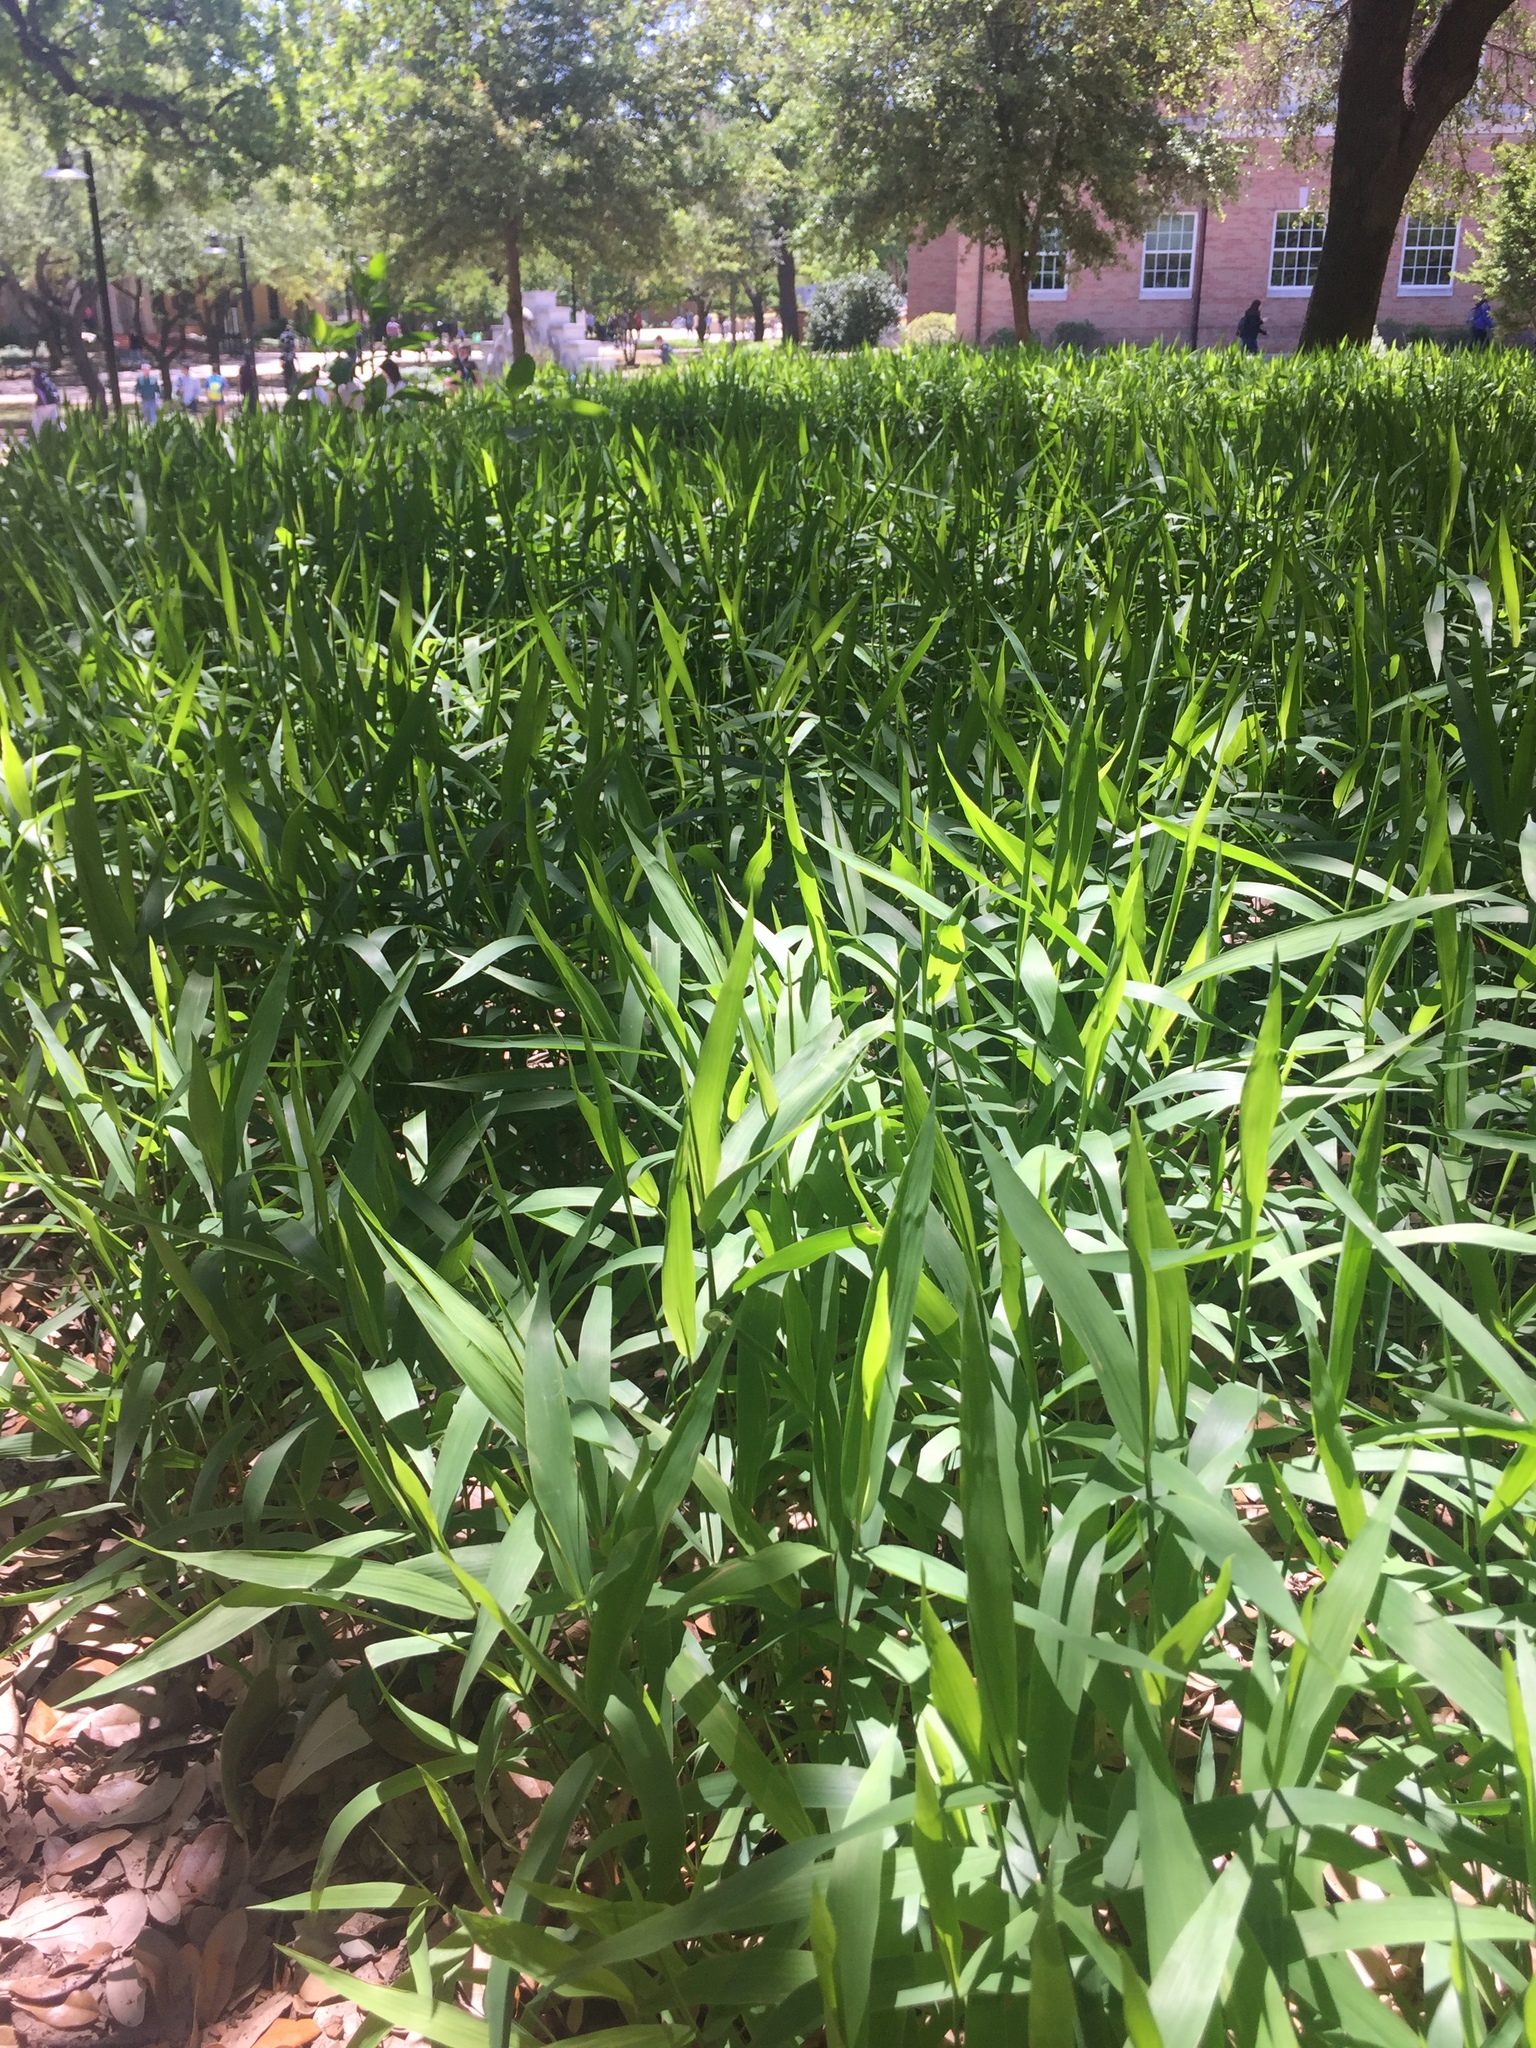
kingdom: Plantae
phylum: Tracheophyta
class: Liliopsida
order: Poales
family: Poaceae
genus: Chasmanthium
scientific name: Chasmanthium latifolium
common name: Broad-leaved chasmanthium
